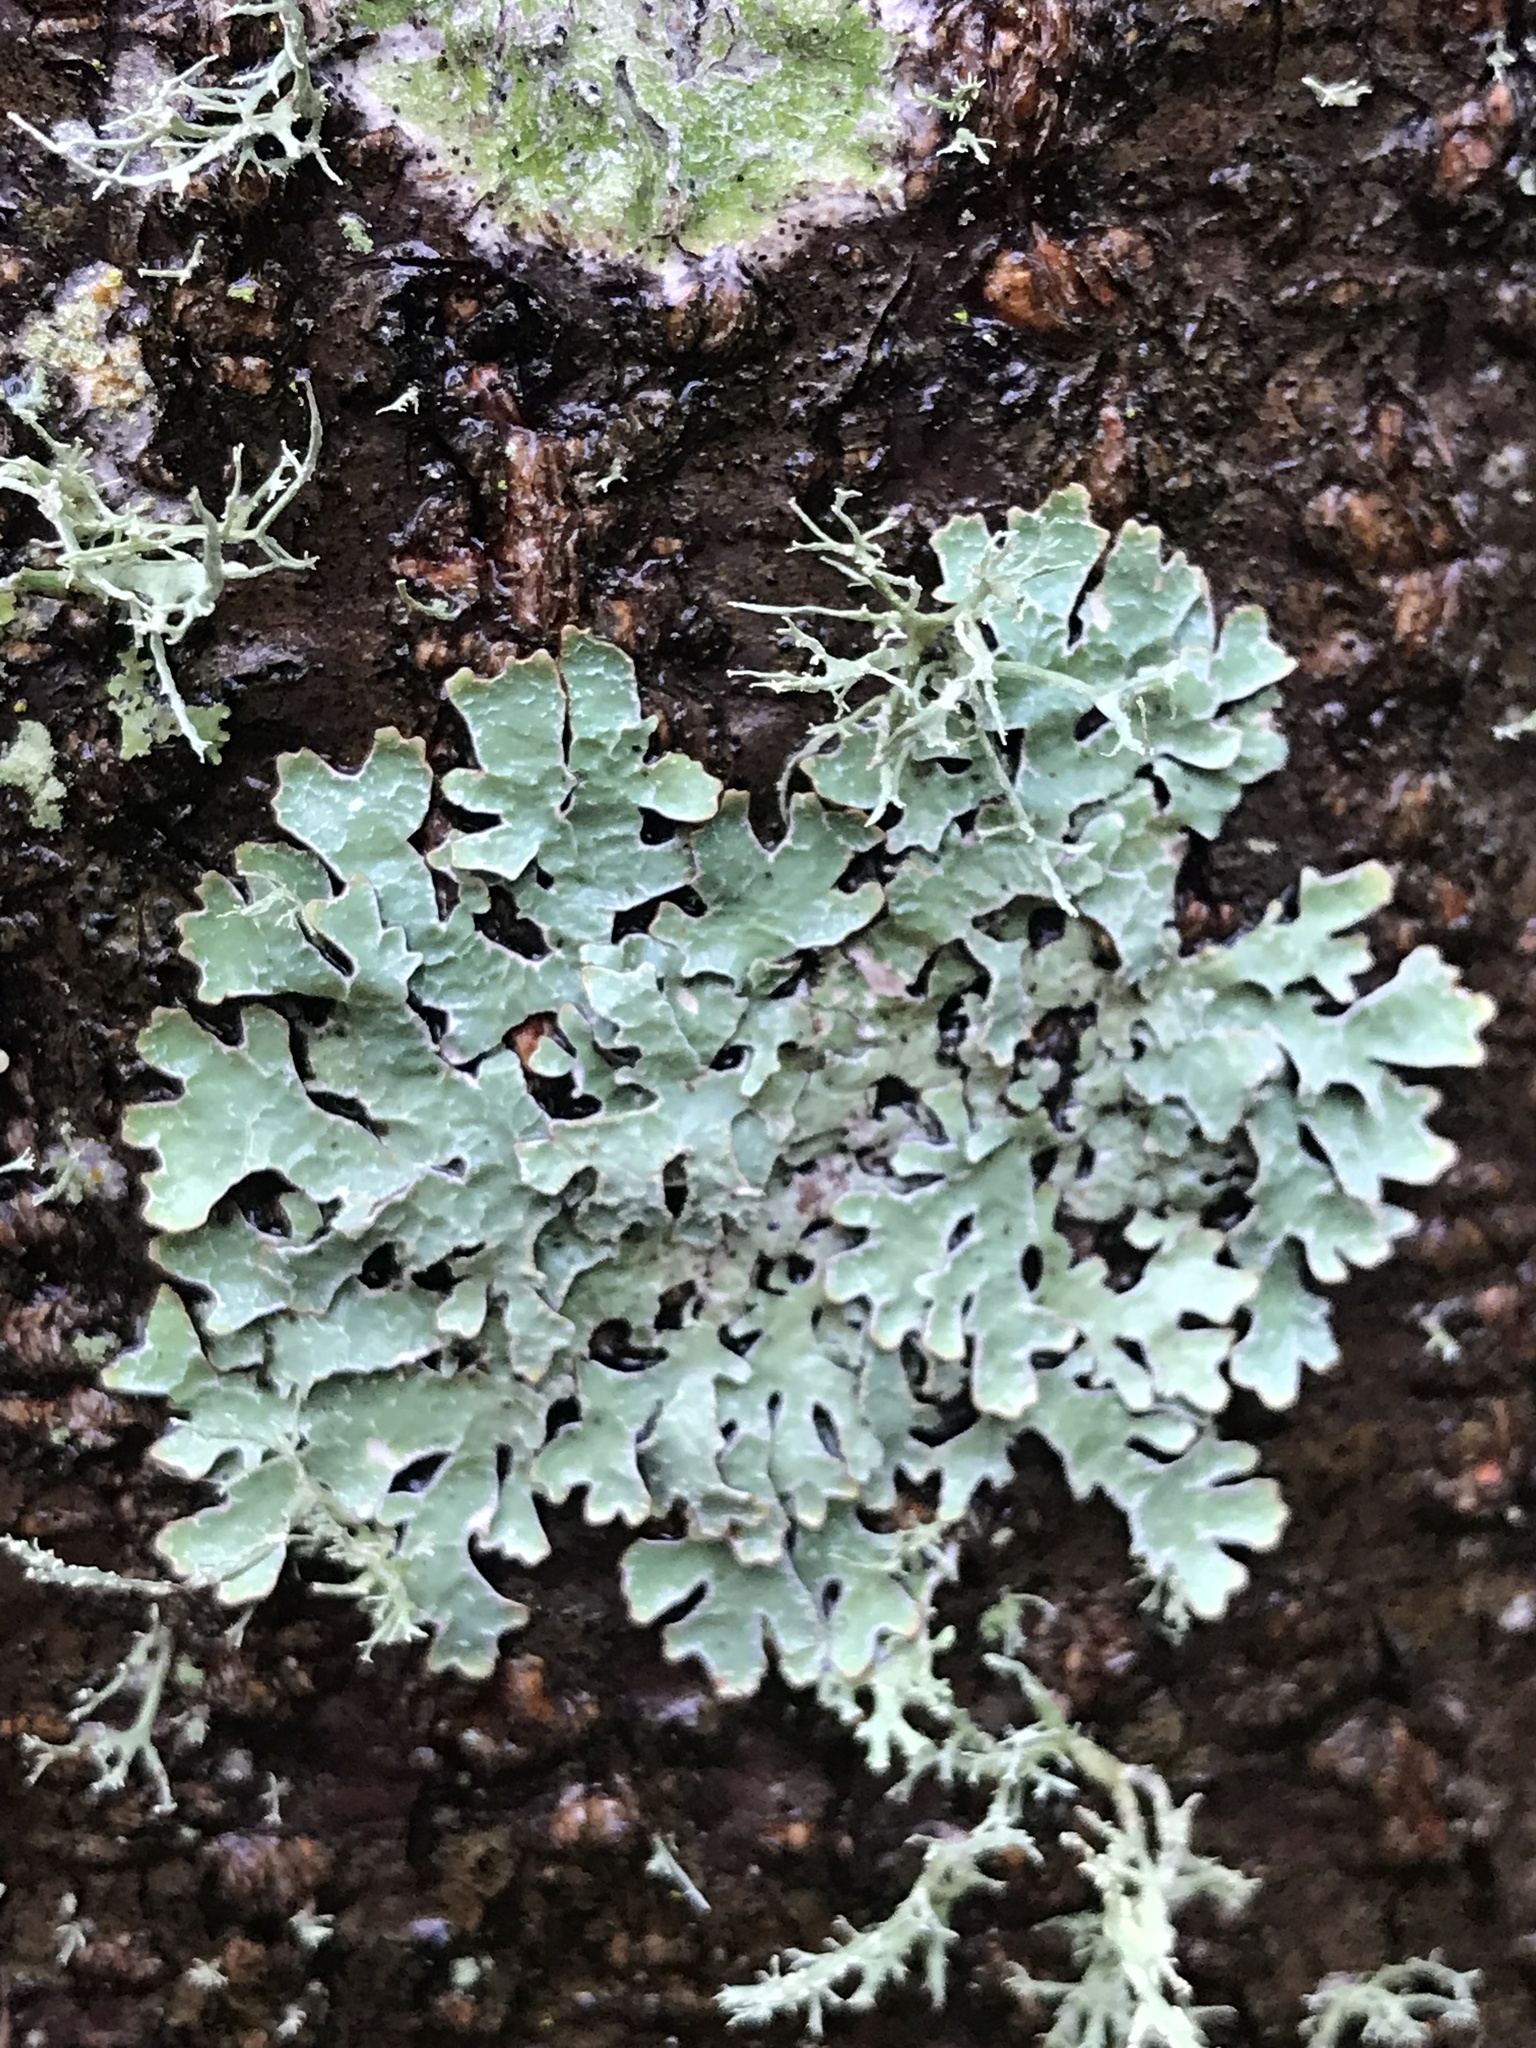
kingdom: Fungi
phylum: Ascomycota
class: Lecanoromycetes
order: Lecanorales
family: Parmeliaceae
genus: Parmelia
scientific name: Parmelia sulcata
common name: Netted shield lichen
